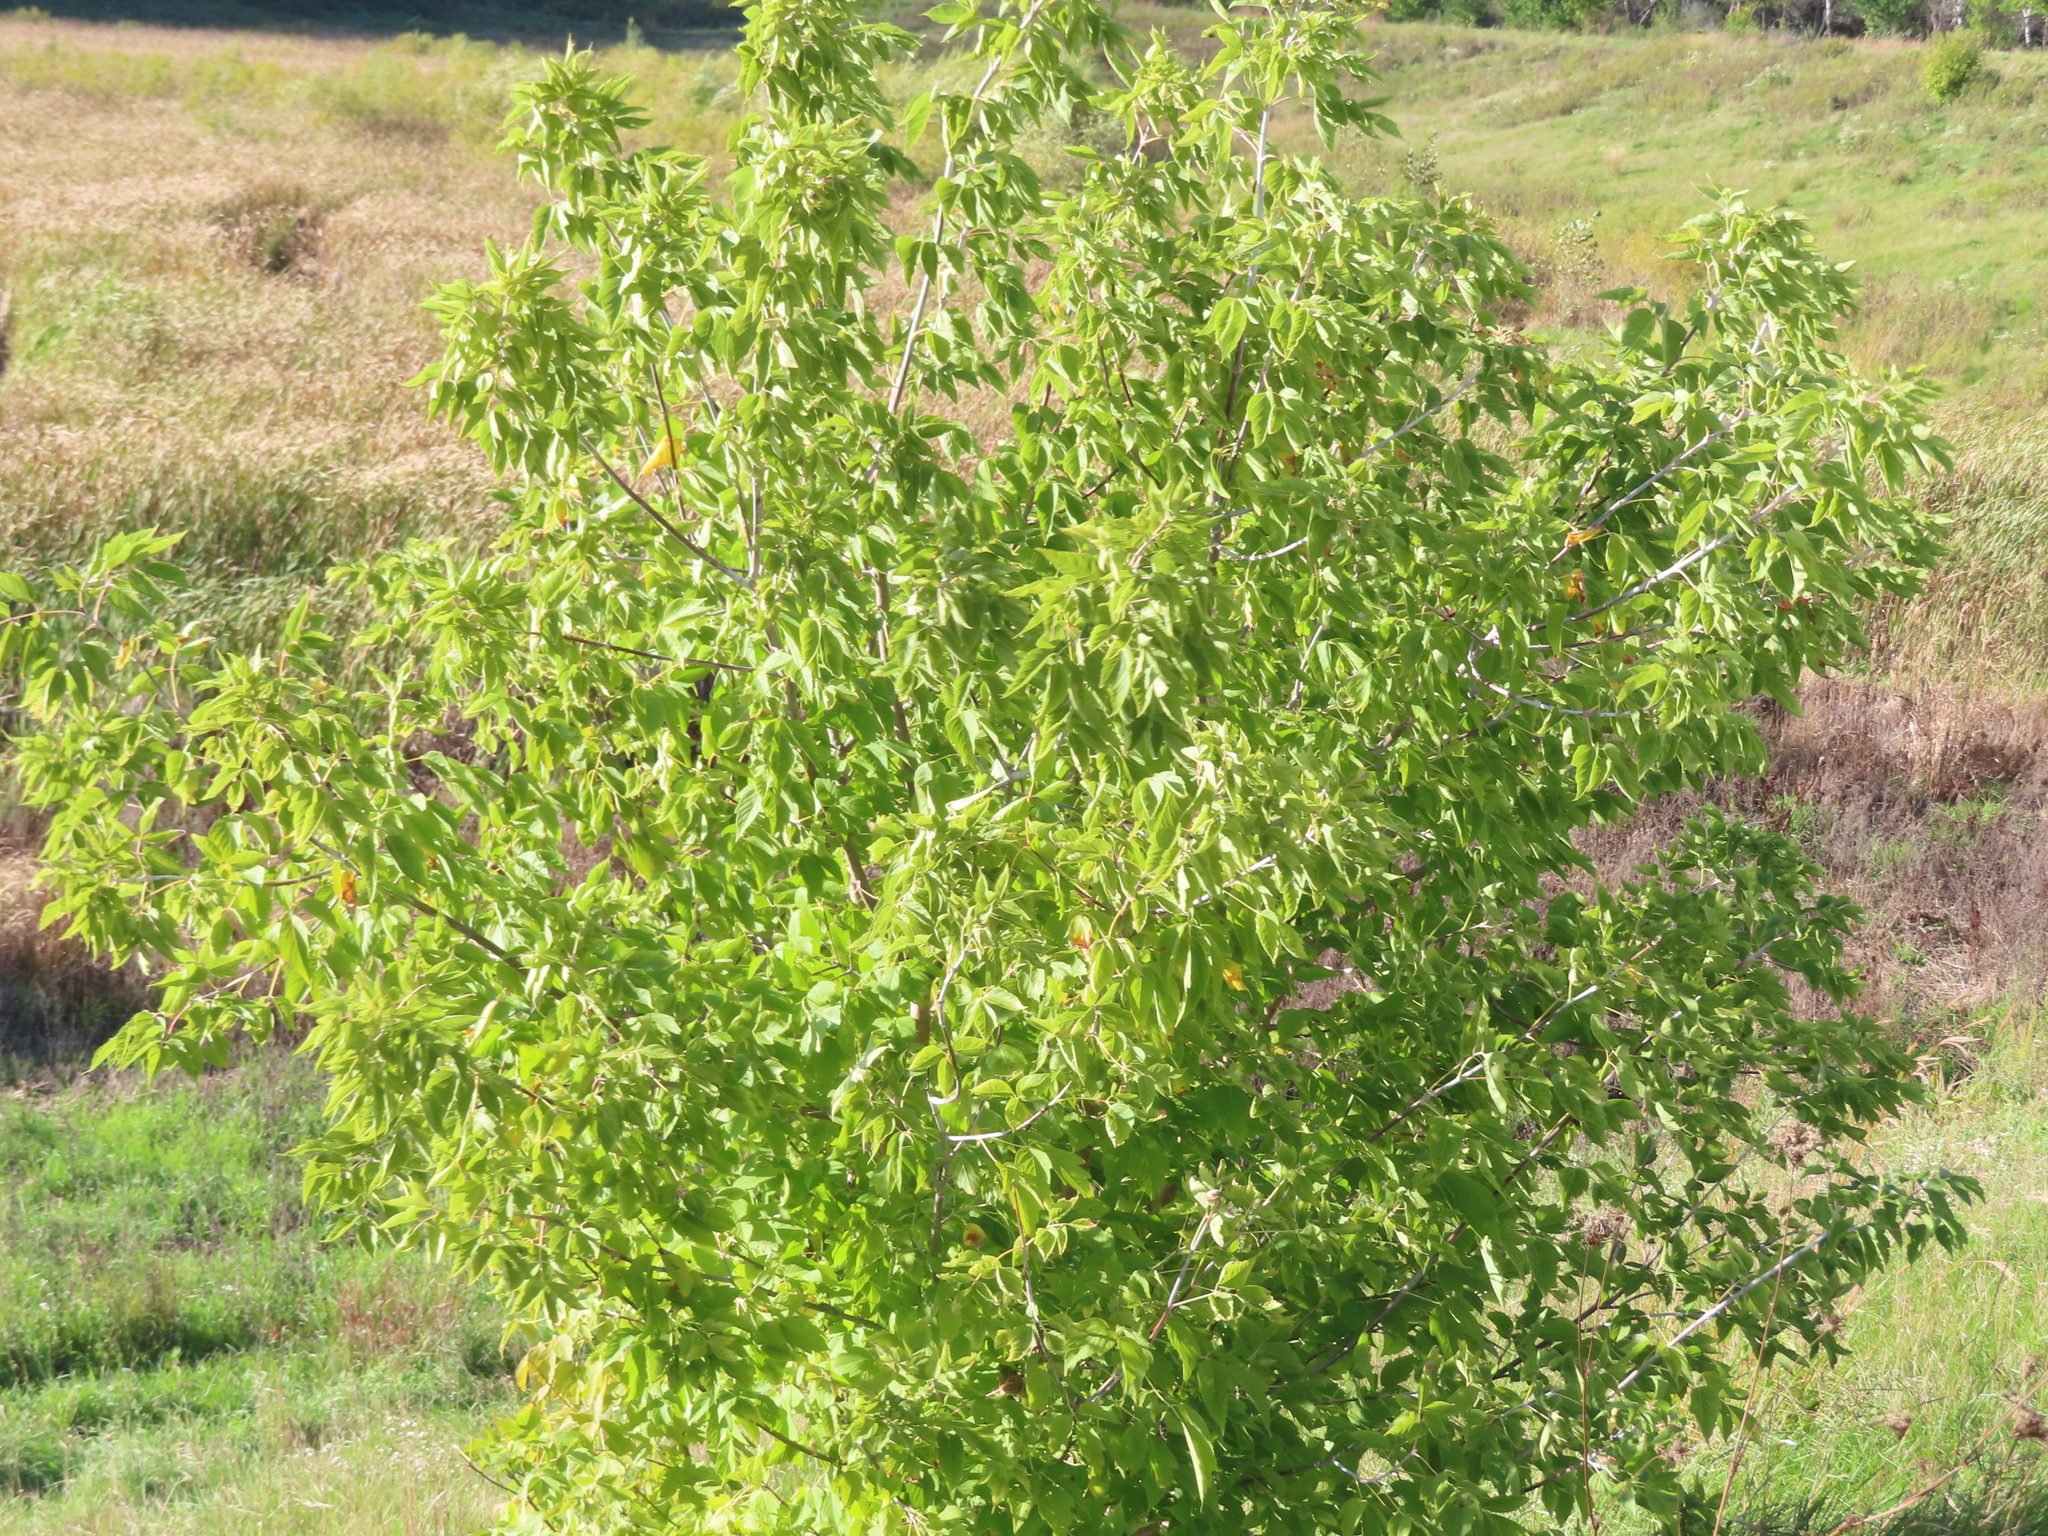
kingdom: Plantae
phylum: Tracheophyta
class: Magnoliopsida
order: Sapindales
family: Sapindaceae
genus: Acer
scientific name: Acer negundo
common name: Ashleaf maple
